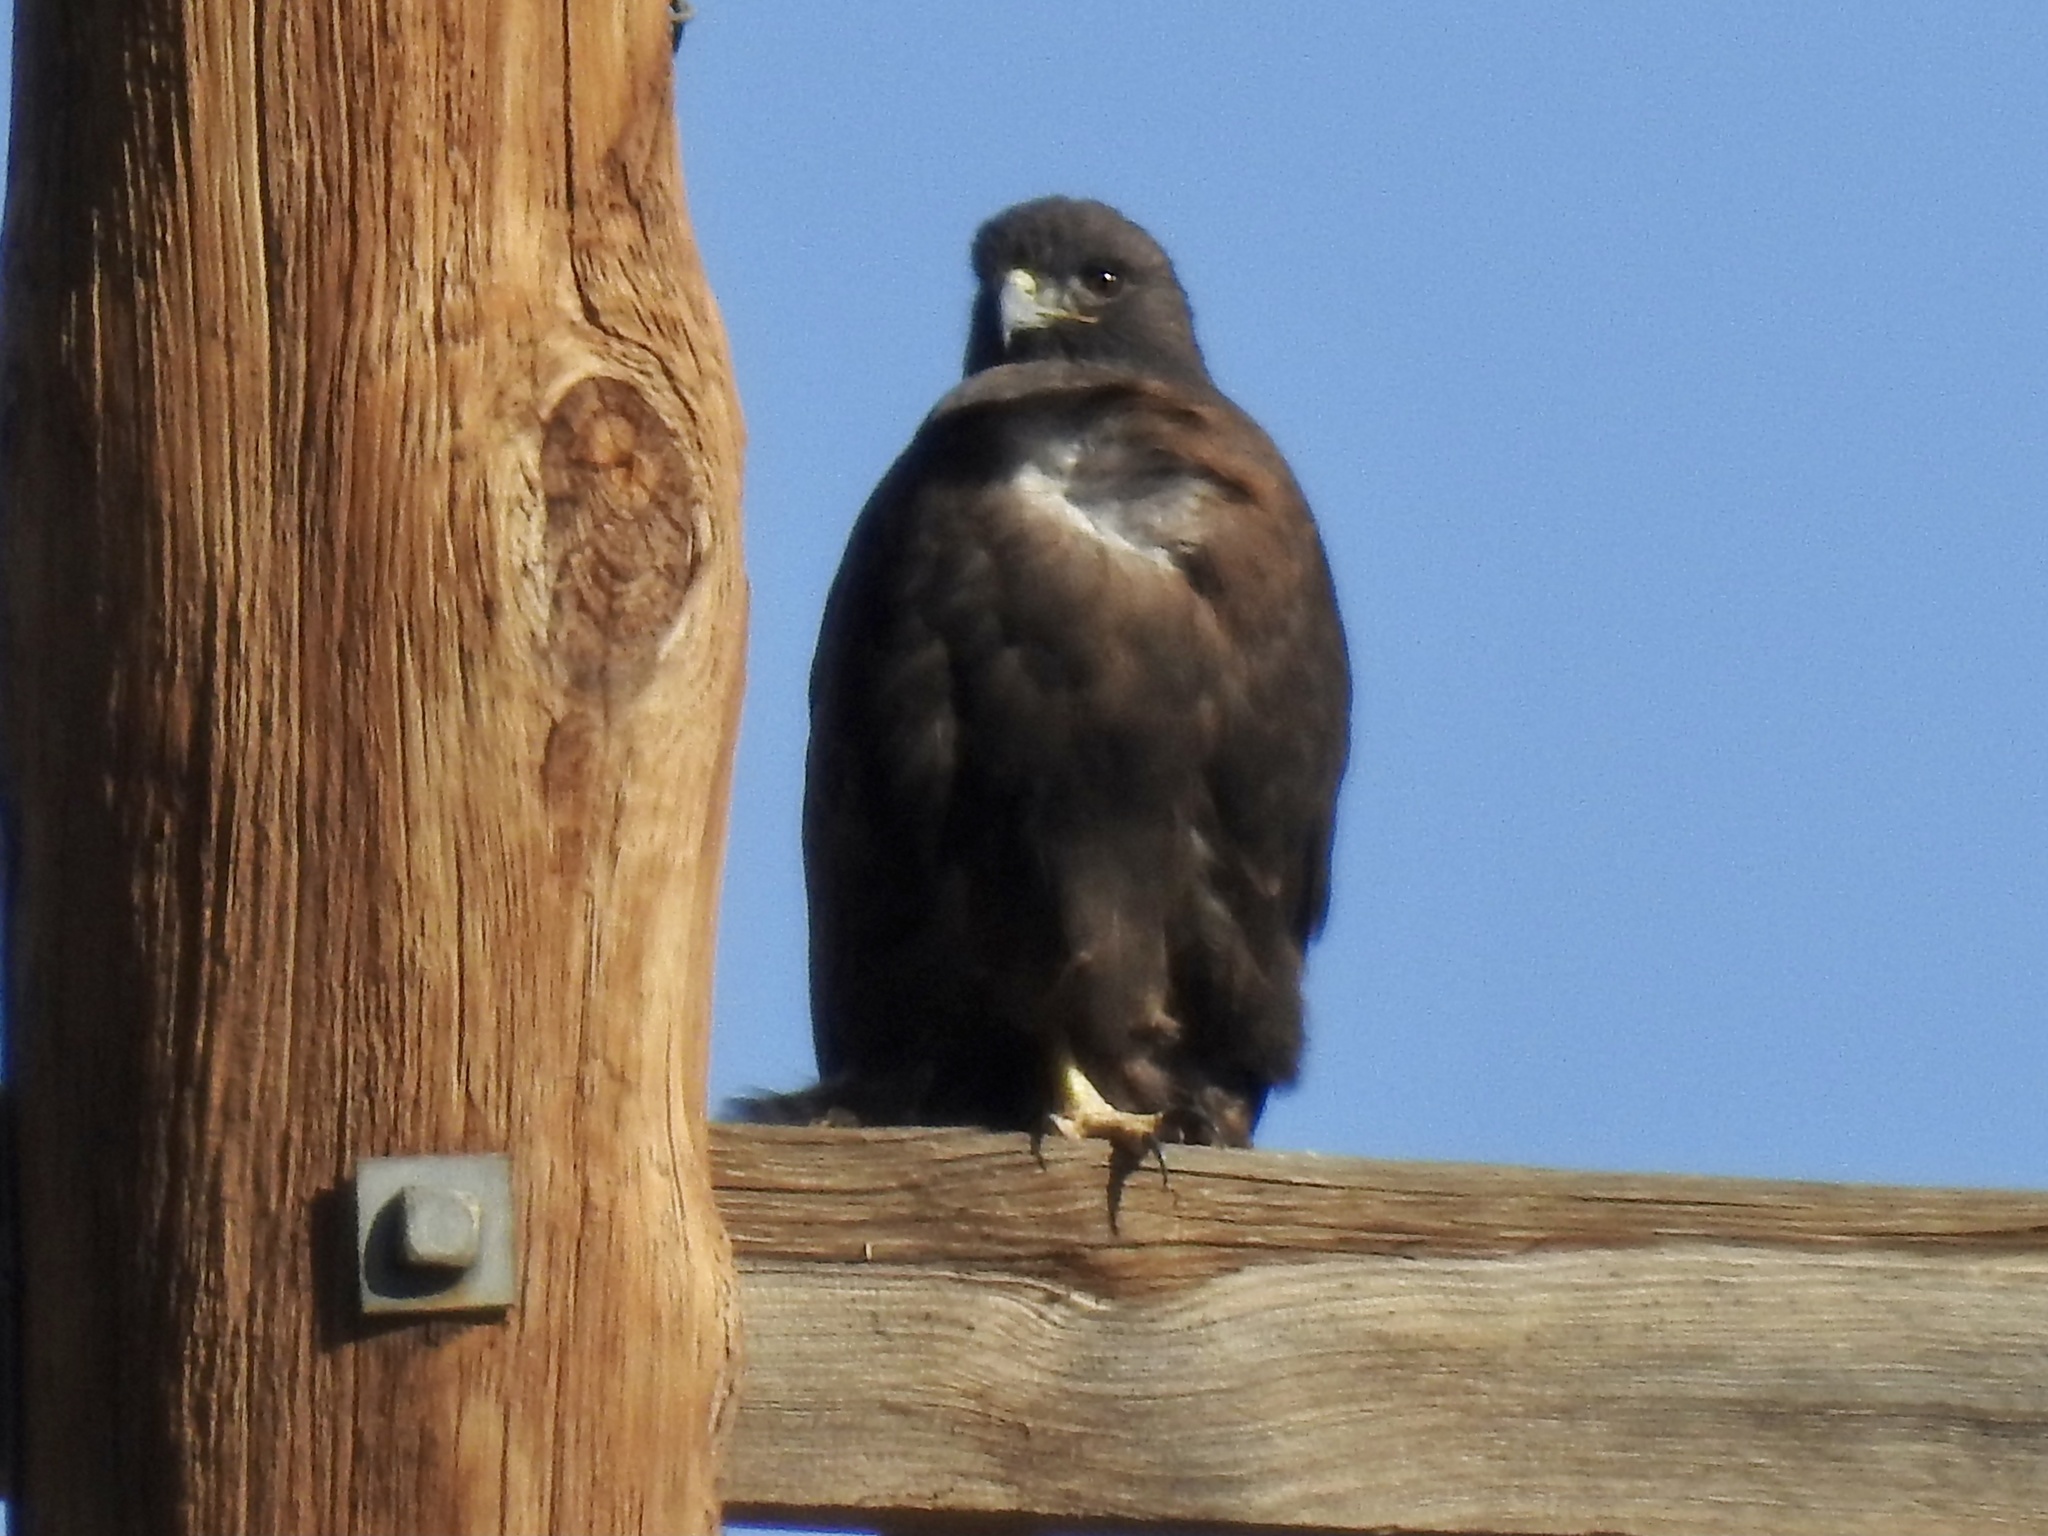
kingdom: Animalia
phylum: Chordata
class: Aves
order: Accipitriformes
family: Accipitridae
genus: Parabuteo
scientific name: Parabuteo unicinctus
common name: Harris's hawk
